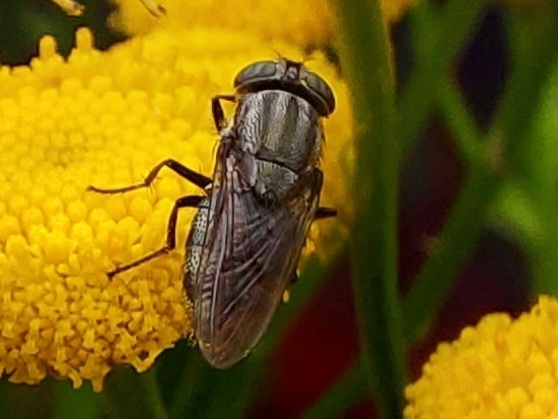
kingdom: Animalia
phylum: Arthropoda
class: Insecta
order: Diptera
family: Calliphoridae
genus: Stomorhina
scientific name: Stomorhina lunata
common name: Locust blowfly
